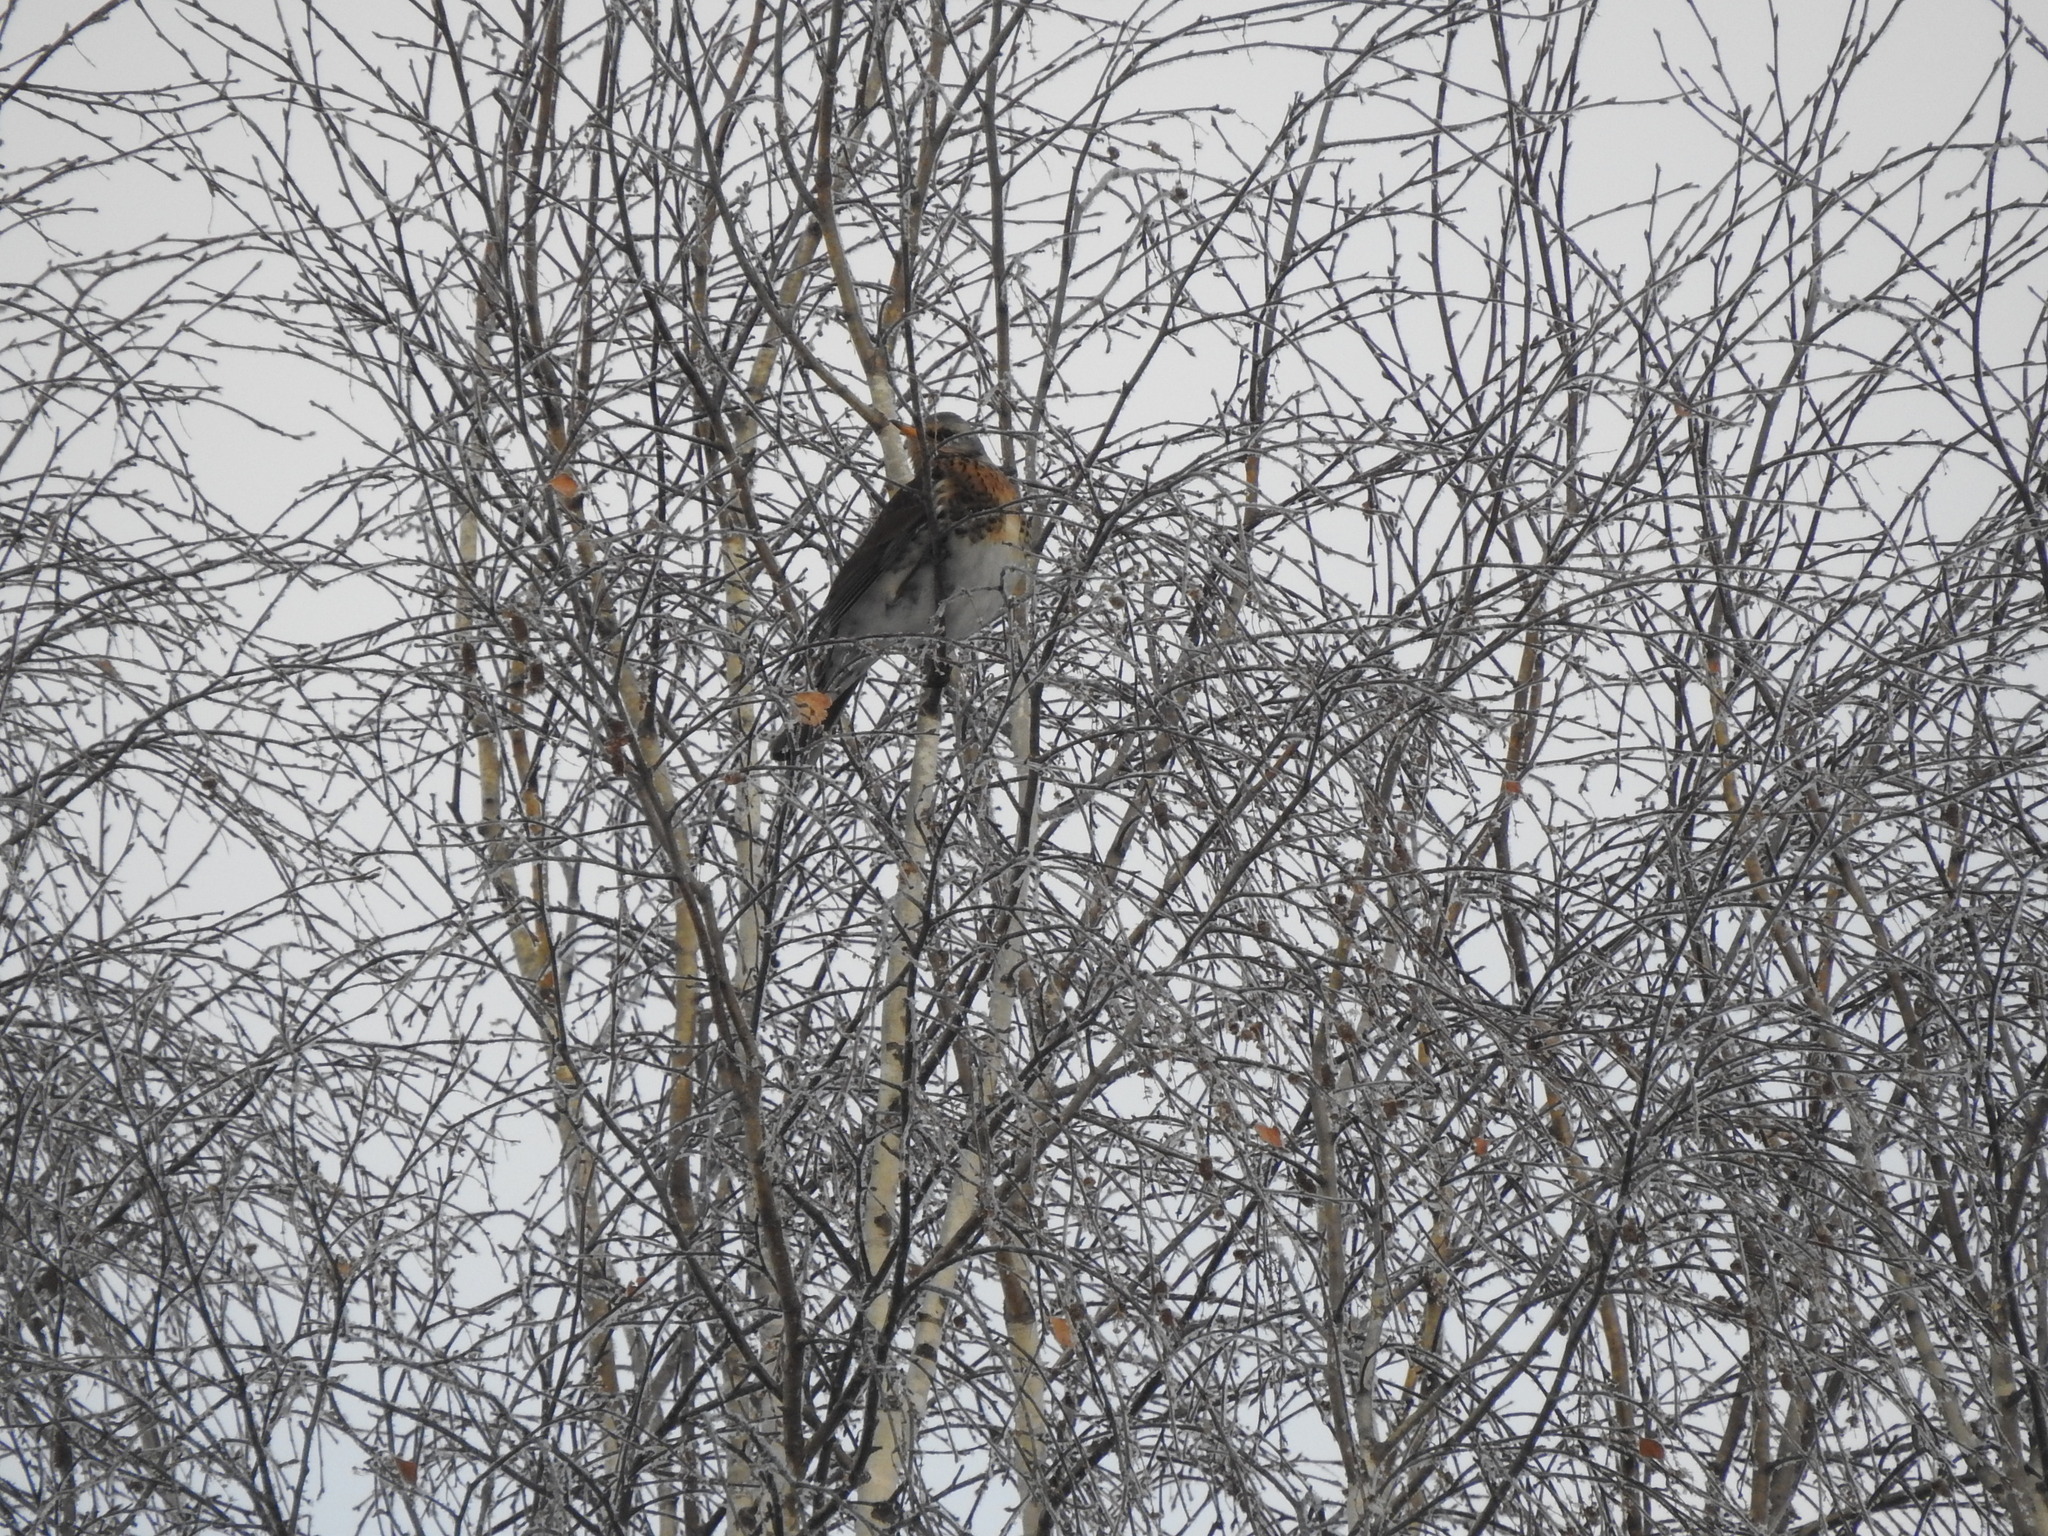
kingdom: Animalia
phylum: Chordata
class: Aves
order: Passeriformes
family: Turdidae
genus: Turdus
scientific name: Turdus pilaris
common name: Fieldfare
